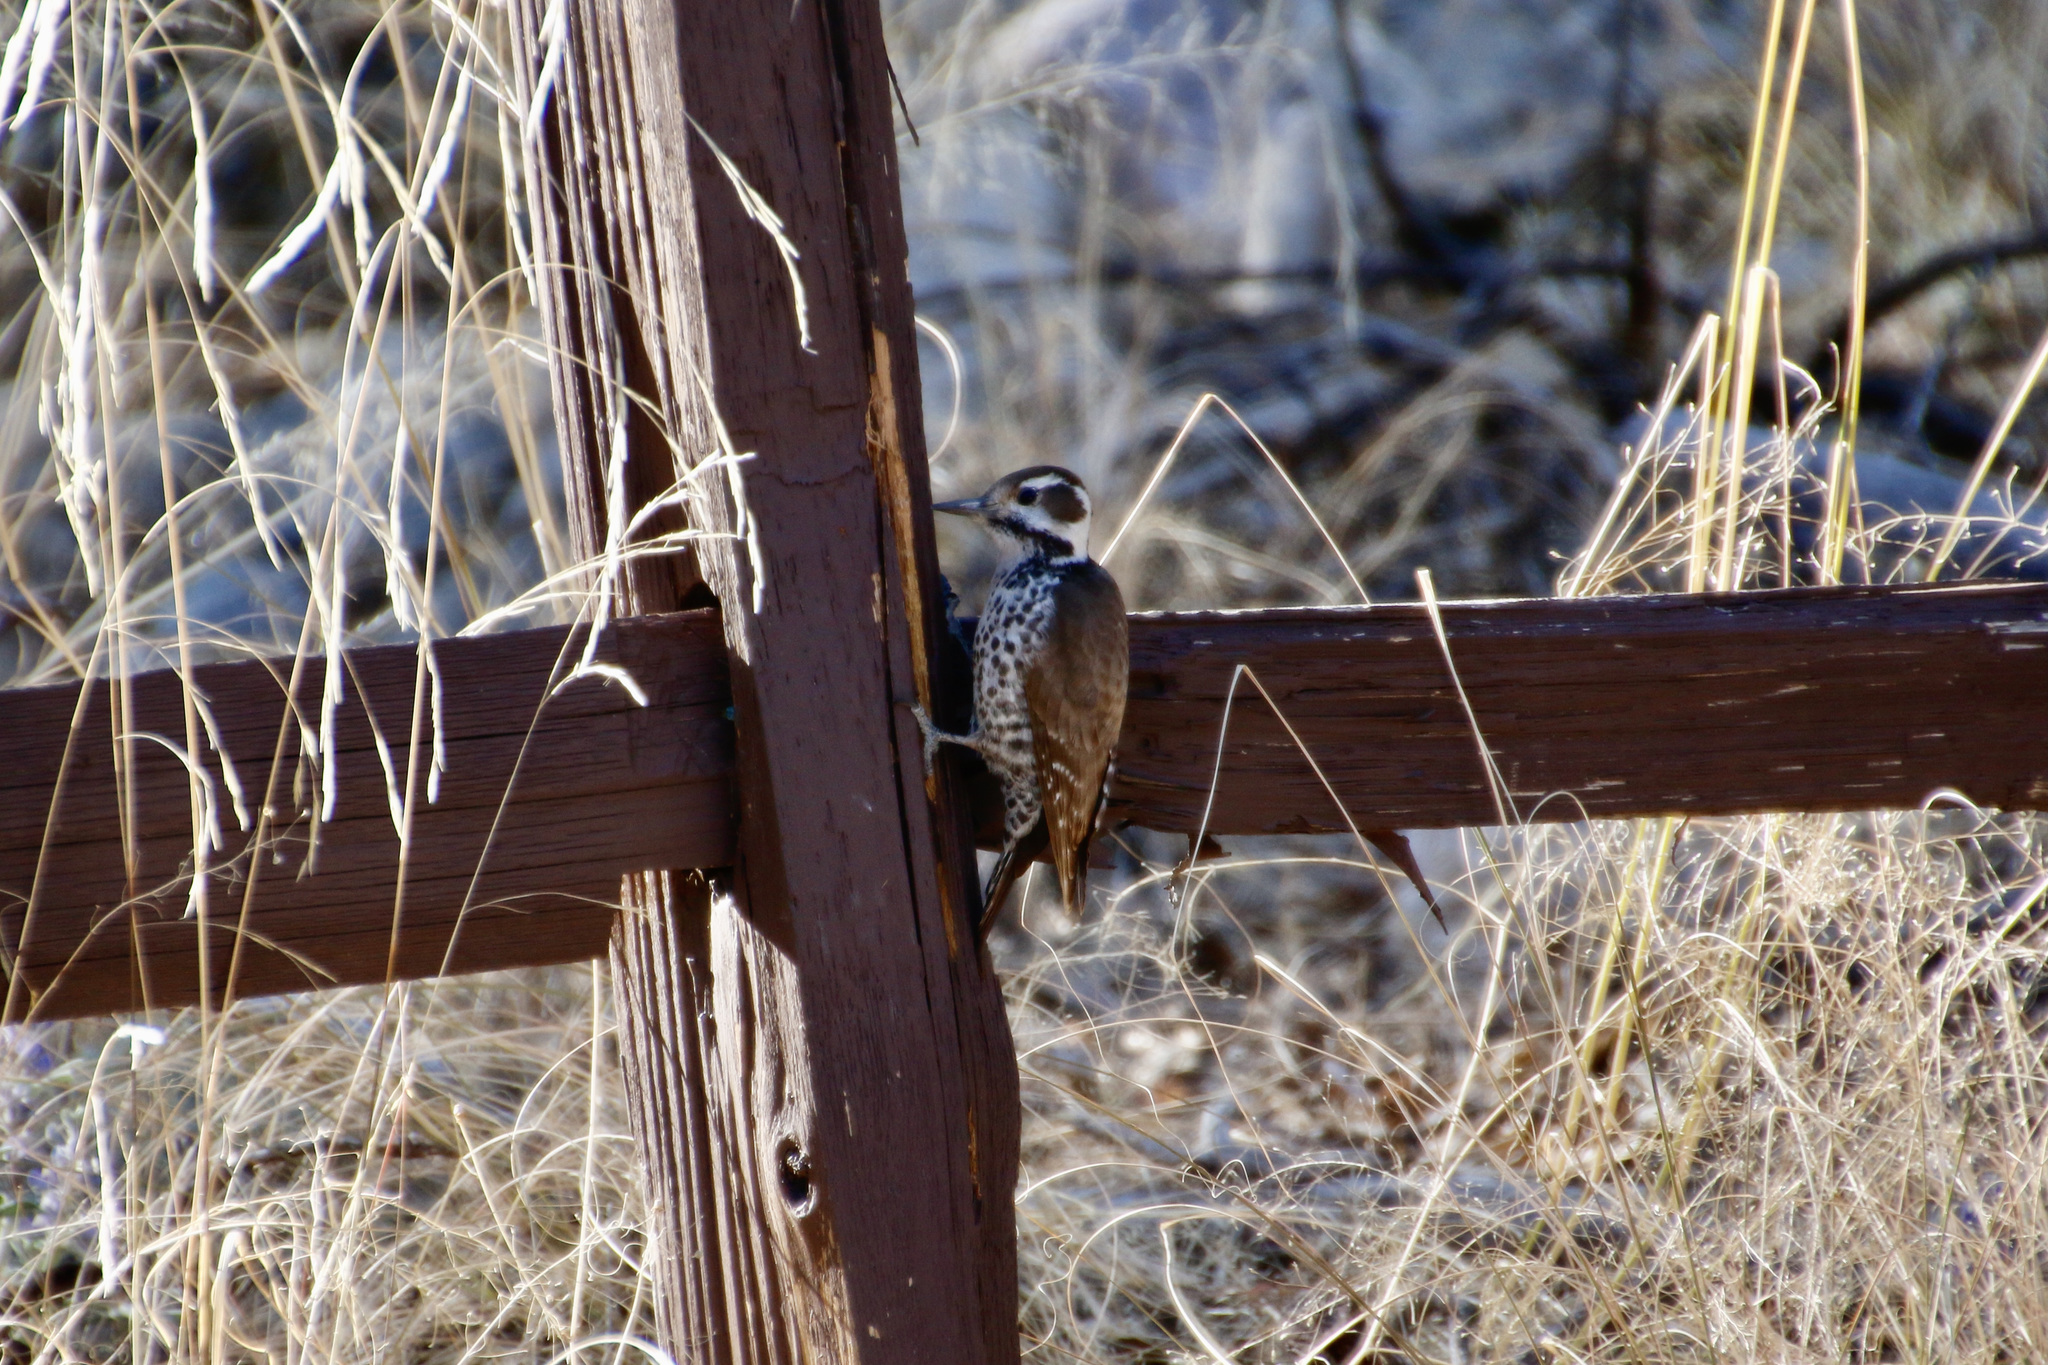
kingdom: Animalia
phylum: Chordata
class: Aves
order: Piciformes
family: Picidae
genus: Leuconotopicus
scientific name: Leuconotopicus arizonae
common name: Arizona woodpecker
